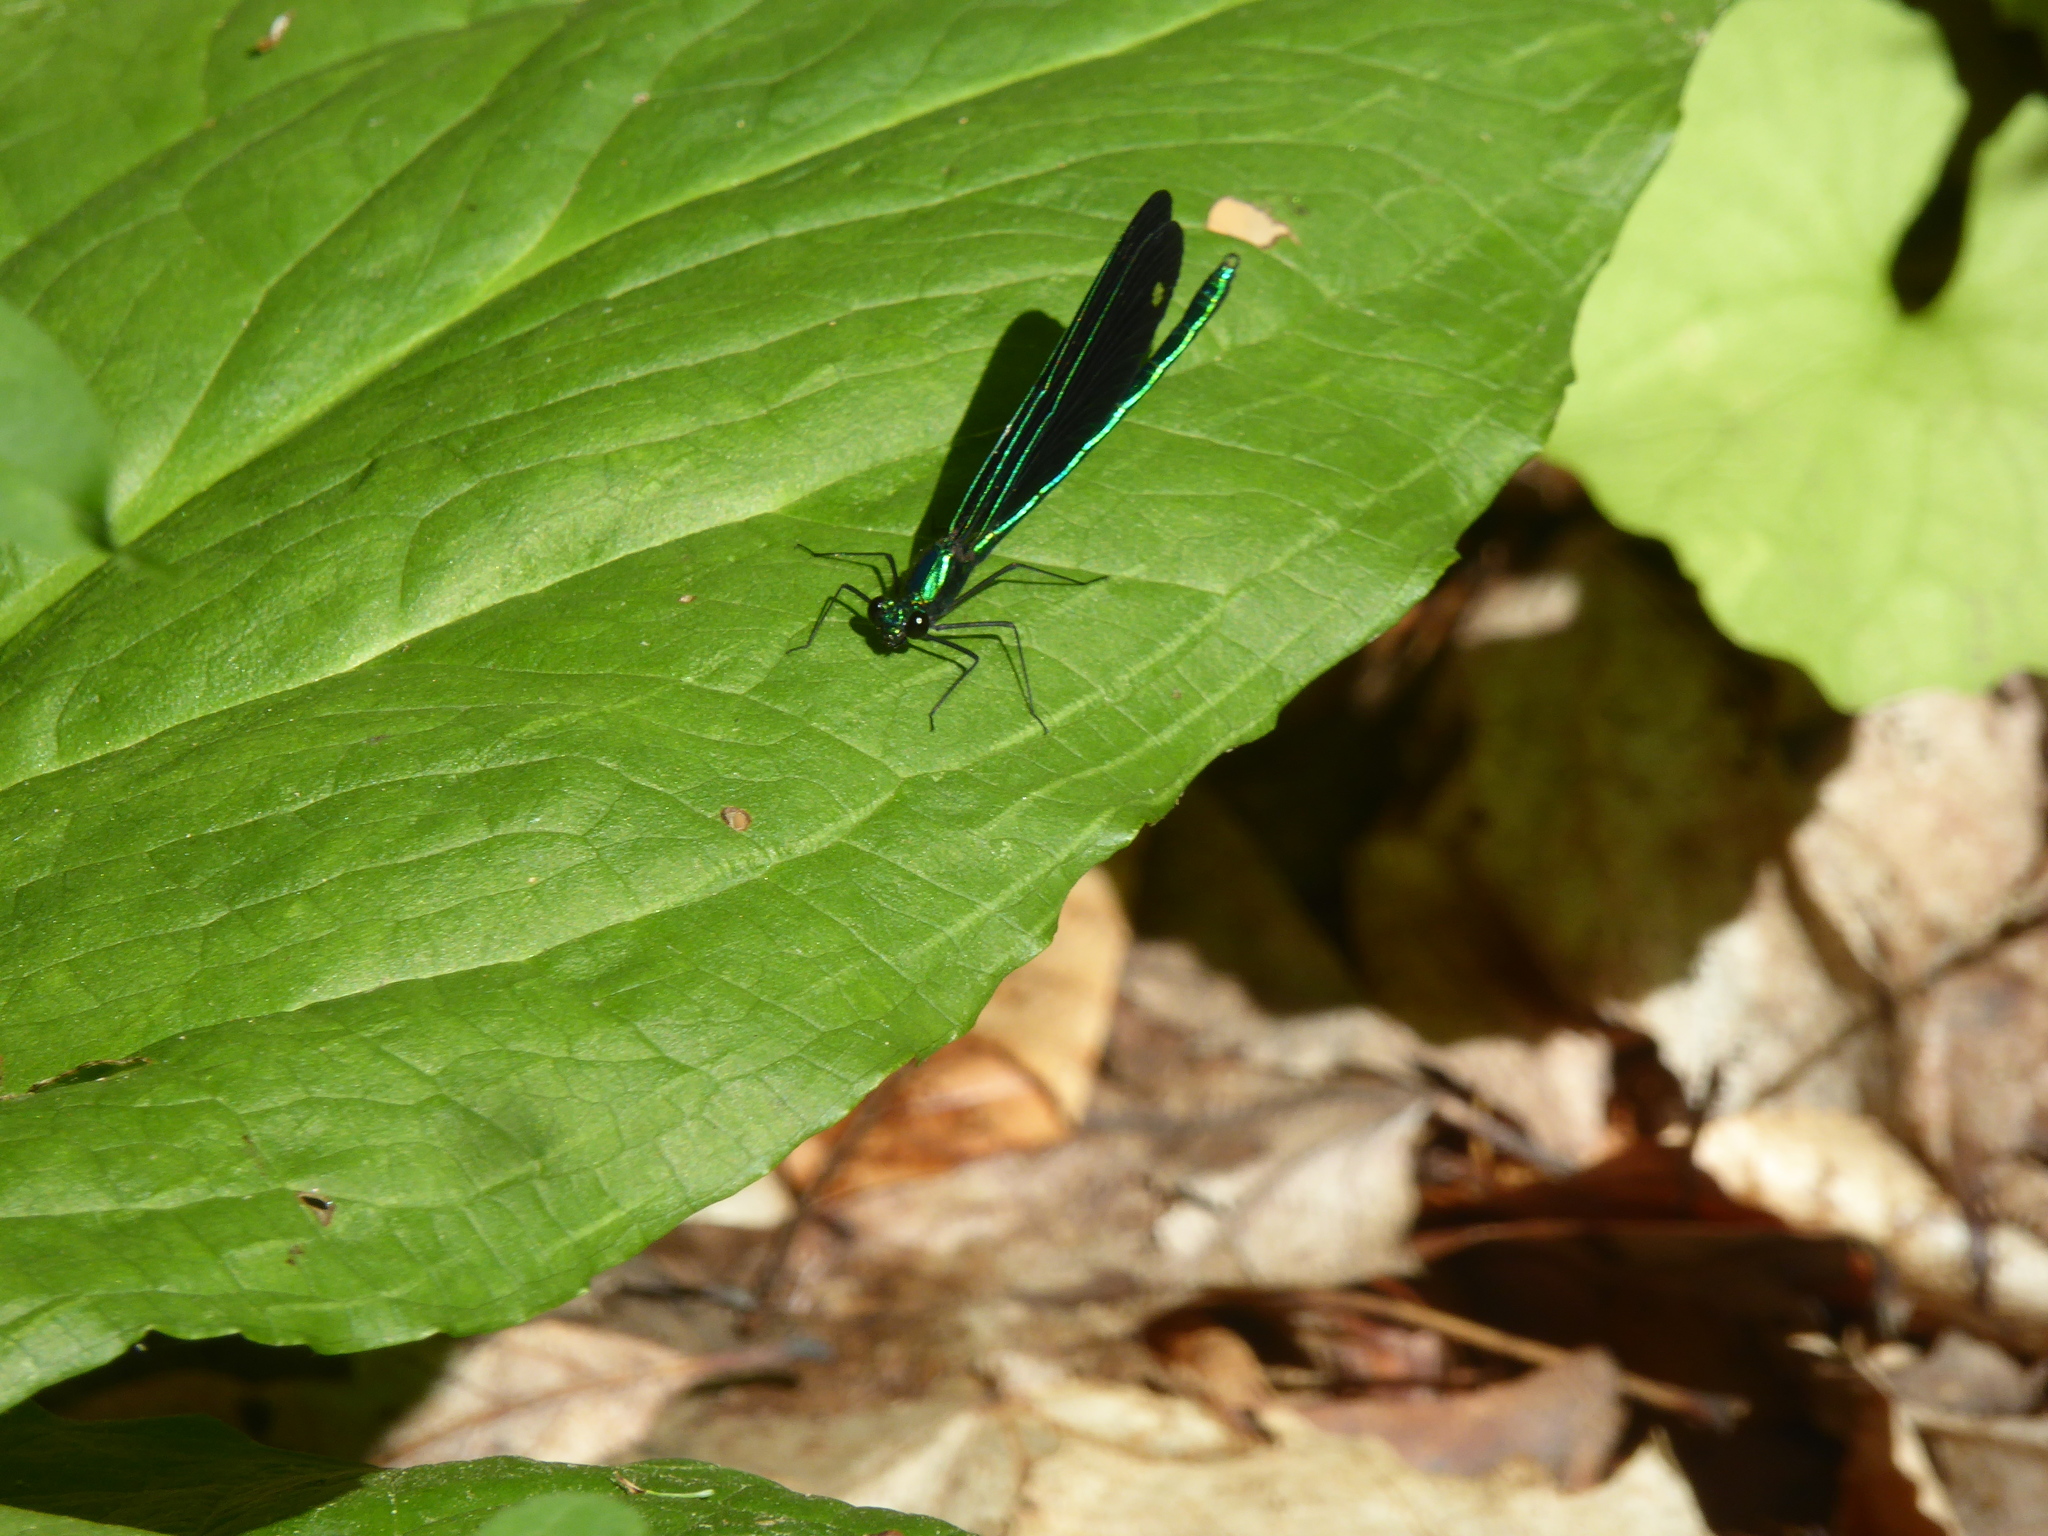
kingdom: Animalia
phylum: Arthropoda
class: Insecta
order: Odonata
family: Calopterygidae
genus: Calopteryx
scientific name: Calopteryx maculata
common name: Ebony jewelwing
